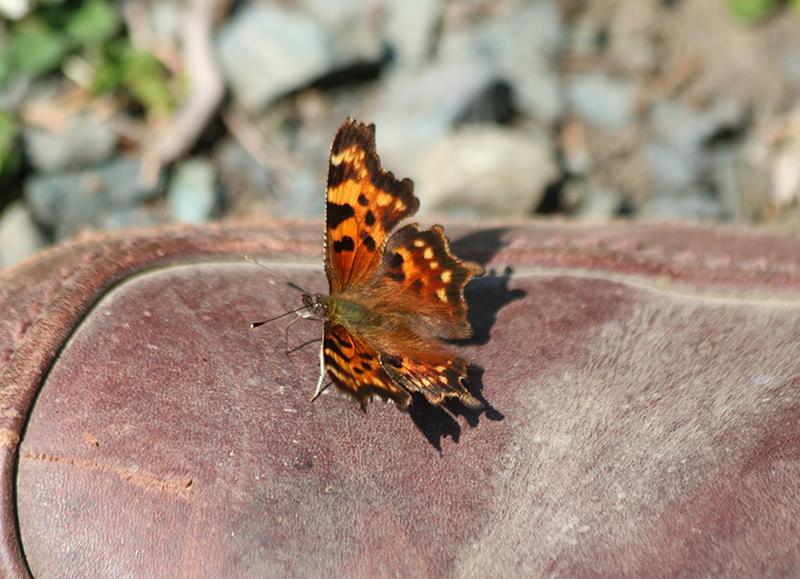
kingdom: Animalia
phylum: Arthropoda
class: Insecta
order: Lepidoptera
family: Nymphalidae
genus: Polygonia
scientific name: Polygonia faunus
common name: Green comma
